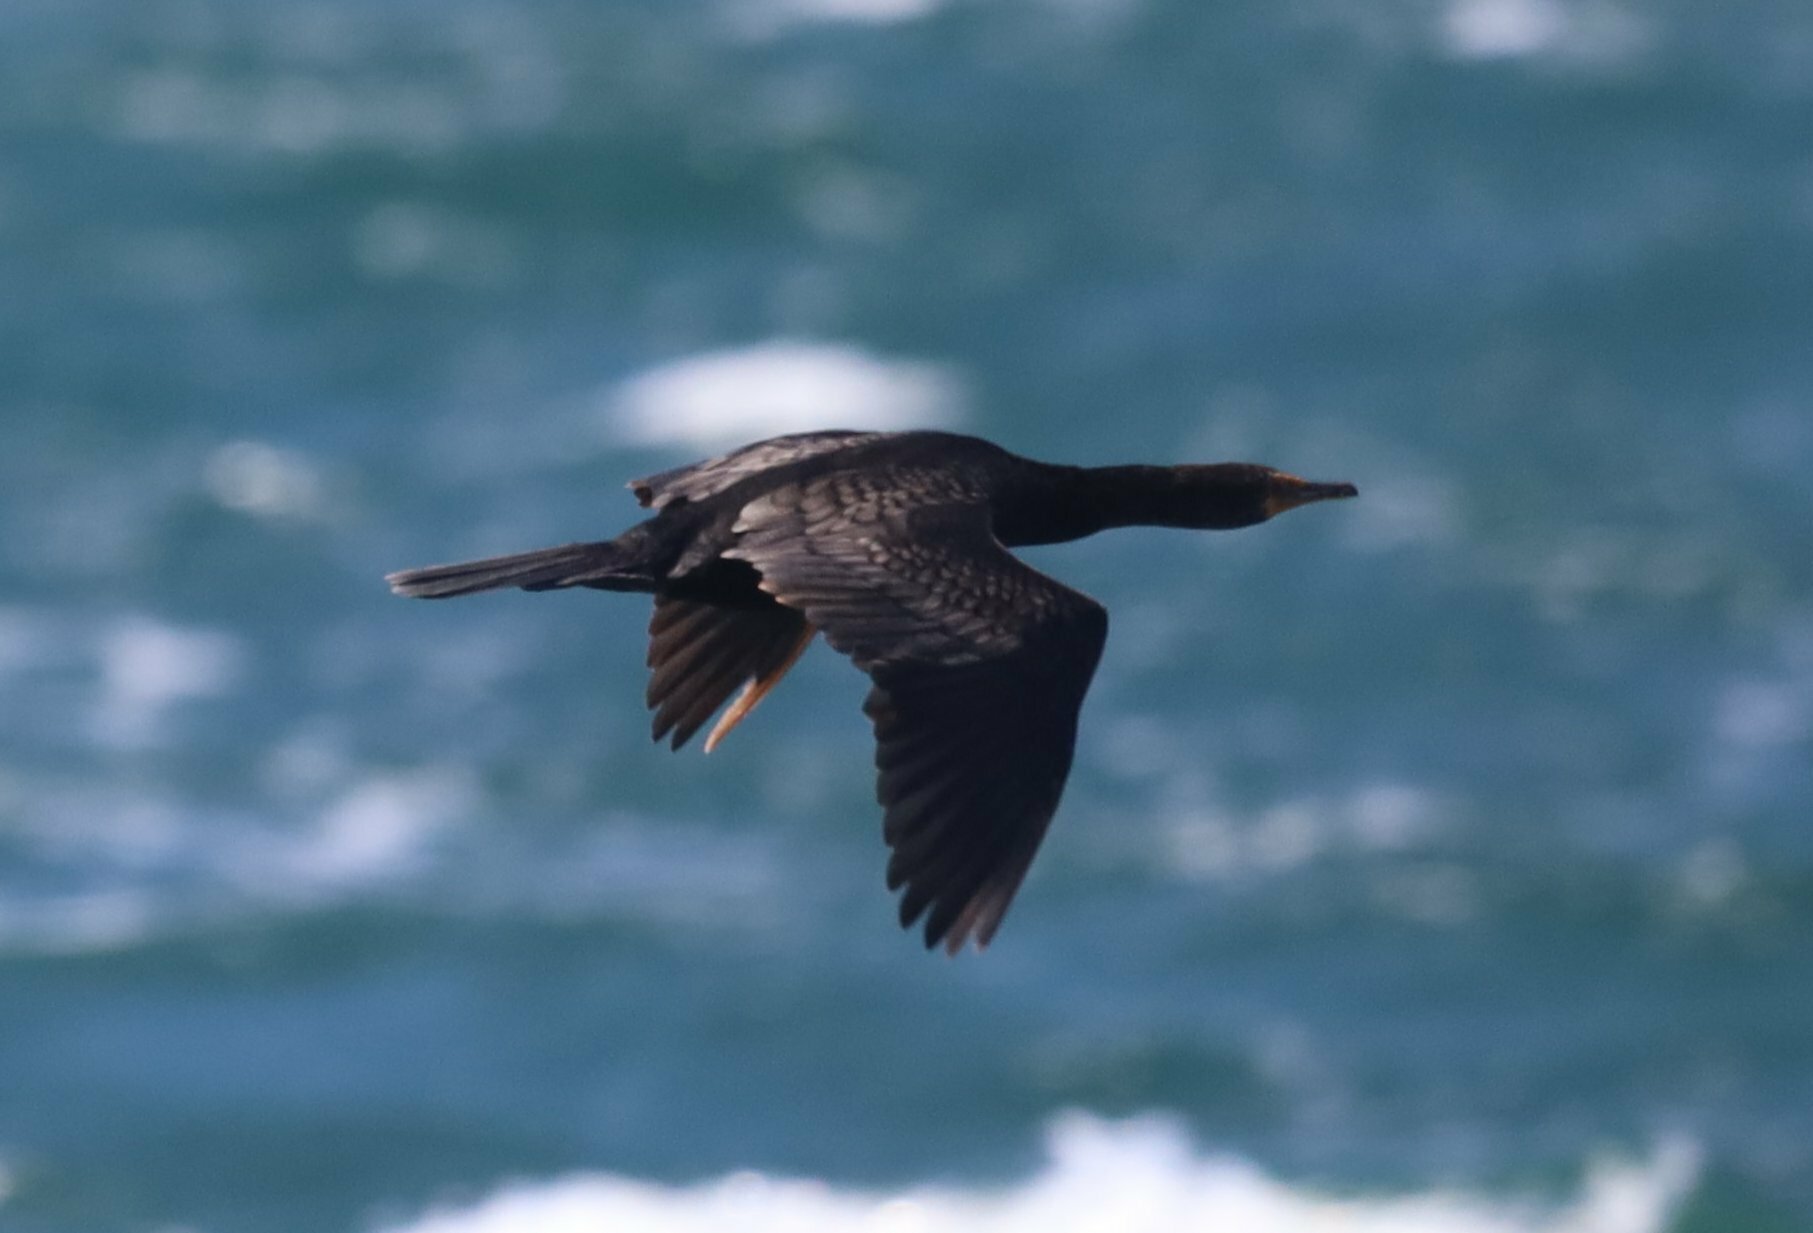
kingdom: Animalia
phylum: Chordata
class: Aves
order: Suliformes
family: Phalacrocoracidae
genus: Microcarbo
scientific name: Microcarbo coronatus
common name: Crowned cormorant
